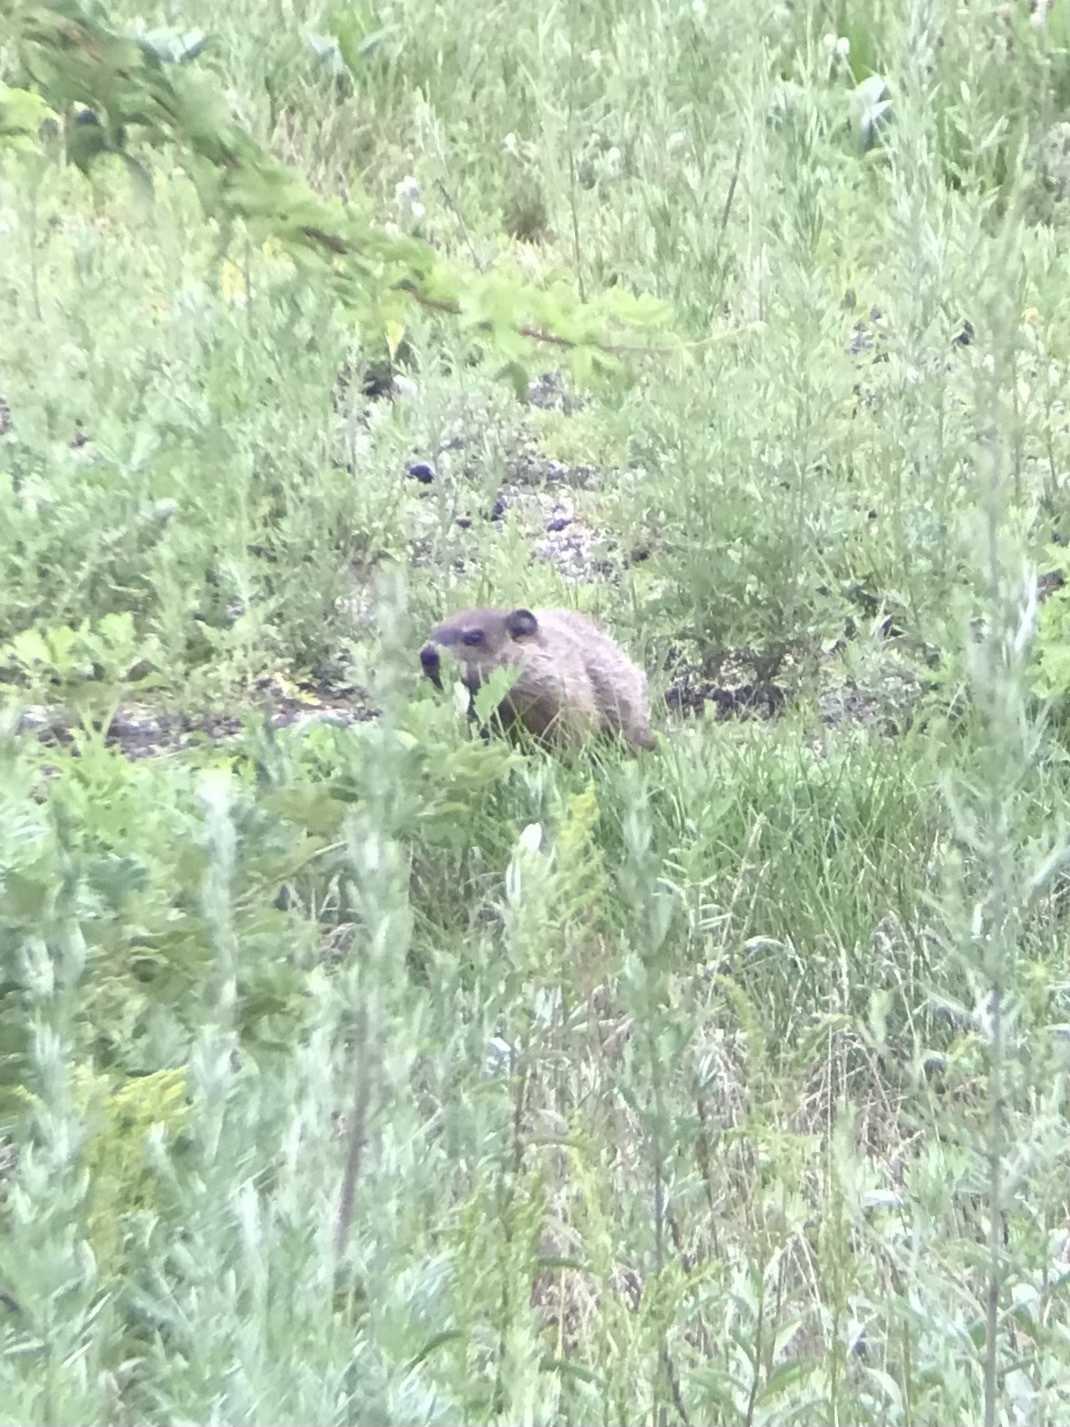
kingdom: Animalia
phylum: Chordata
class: Mammalia
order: Rodentia
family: Sciuridae
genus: Marmota
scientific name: Marmota monax
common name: Groundhog
